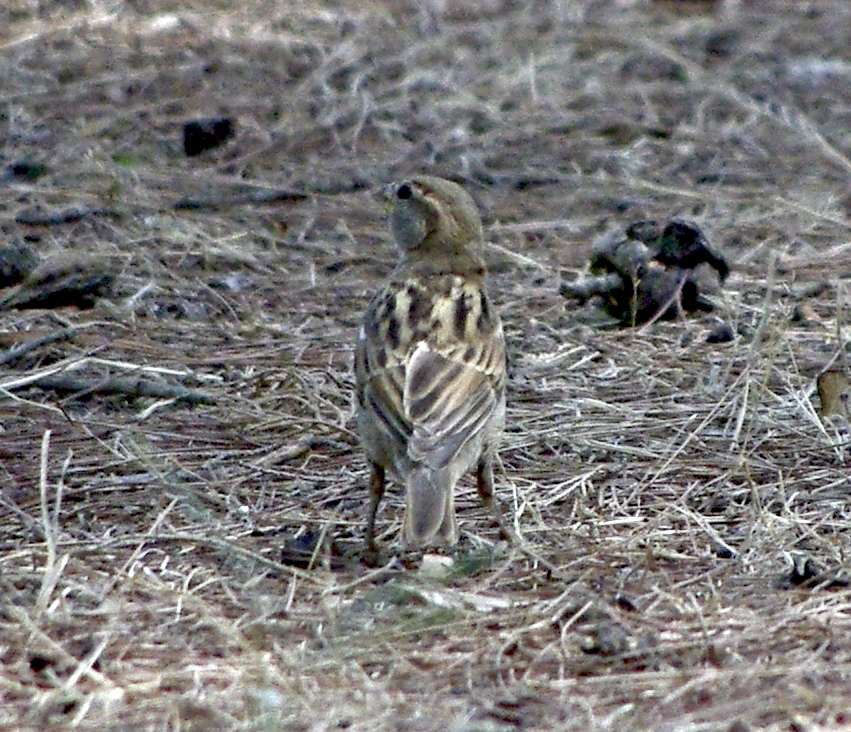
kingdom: Animalia
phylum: Chordata
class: Aves
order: Passeriformes
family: Passeridae
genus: Passer
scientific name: Passer domesticus
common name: House sparrow
